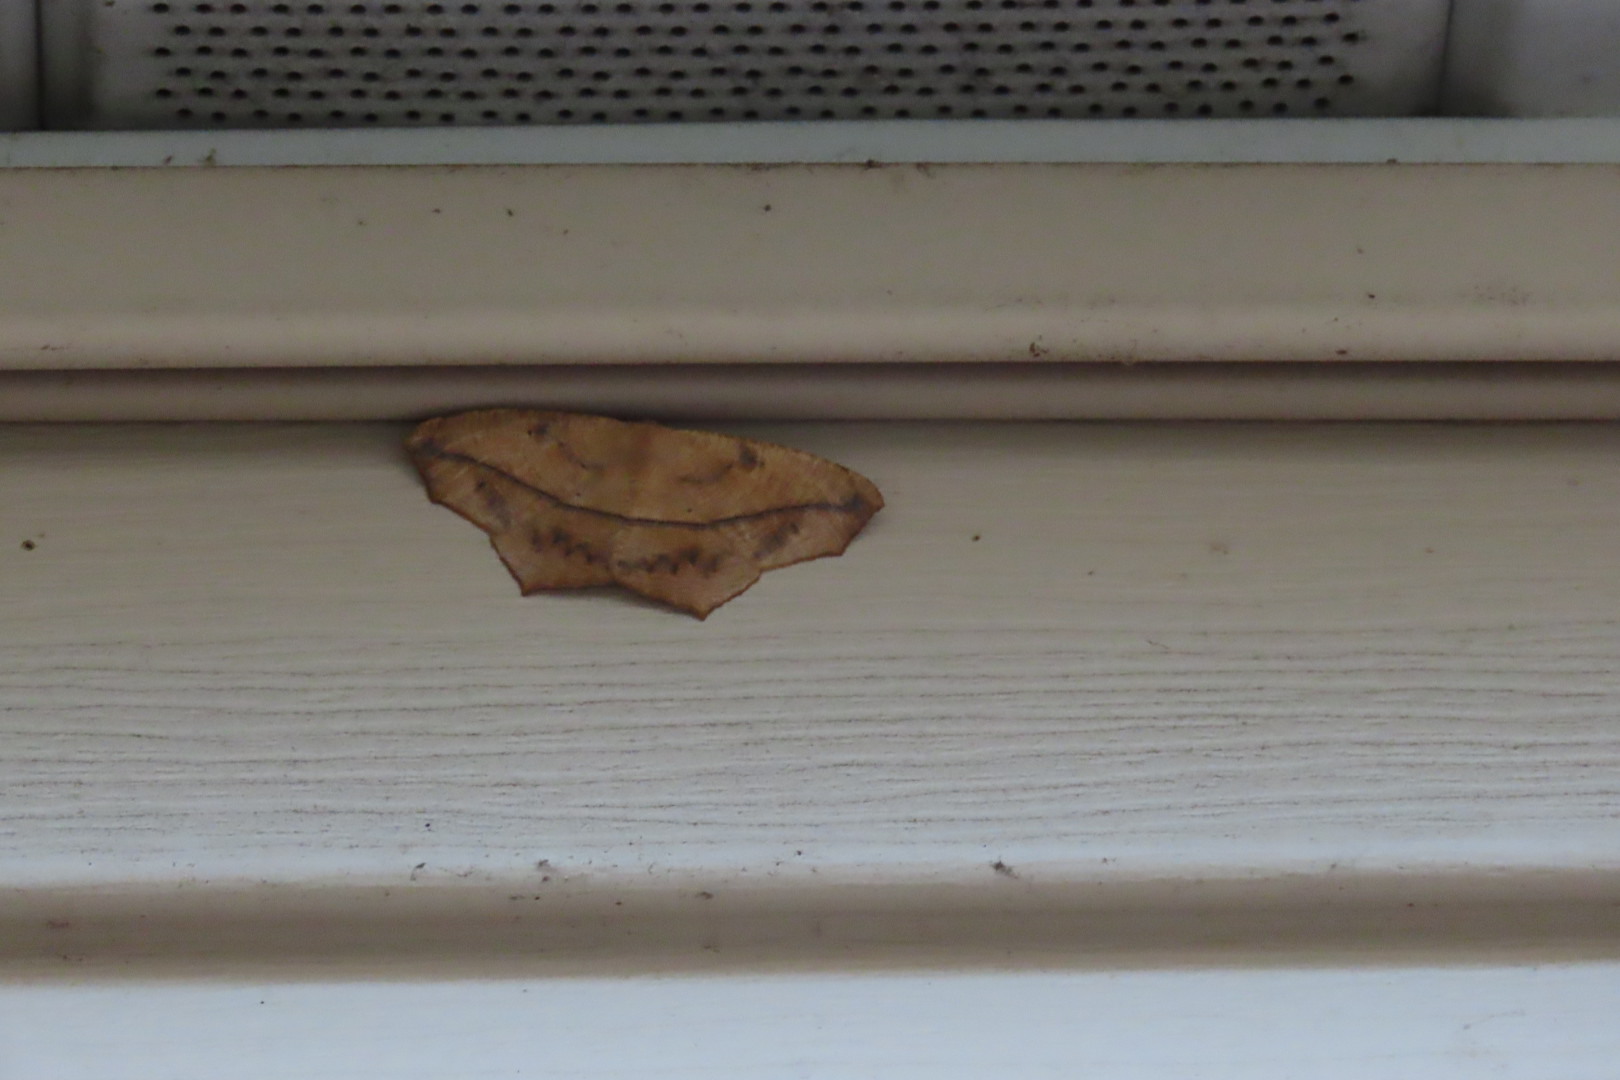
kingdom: Animalia
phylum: Arthropoda
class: Insecta
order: Lepidoptera
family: Geometridae
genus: Prochoerodes
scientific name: Prochoerodes lineola
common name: Large maple spanworm
